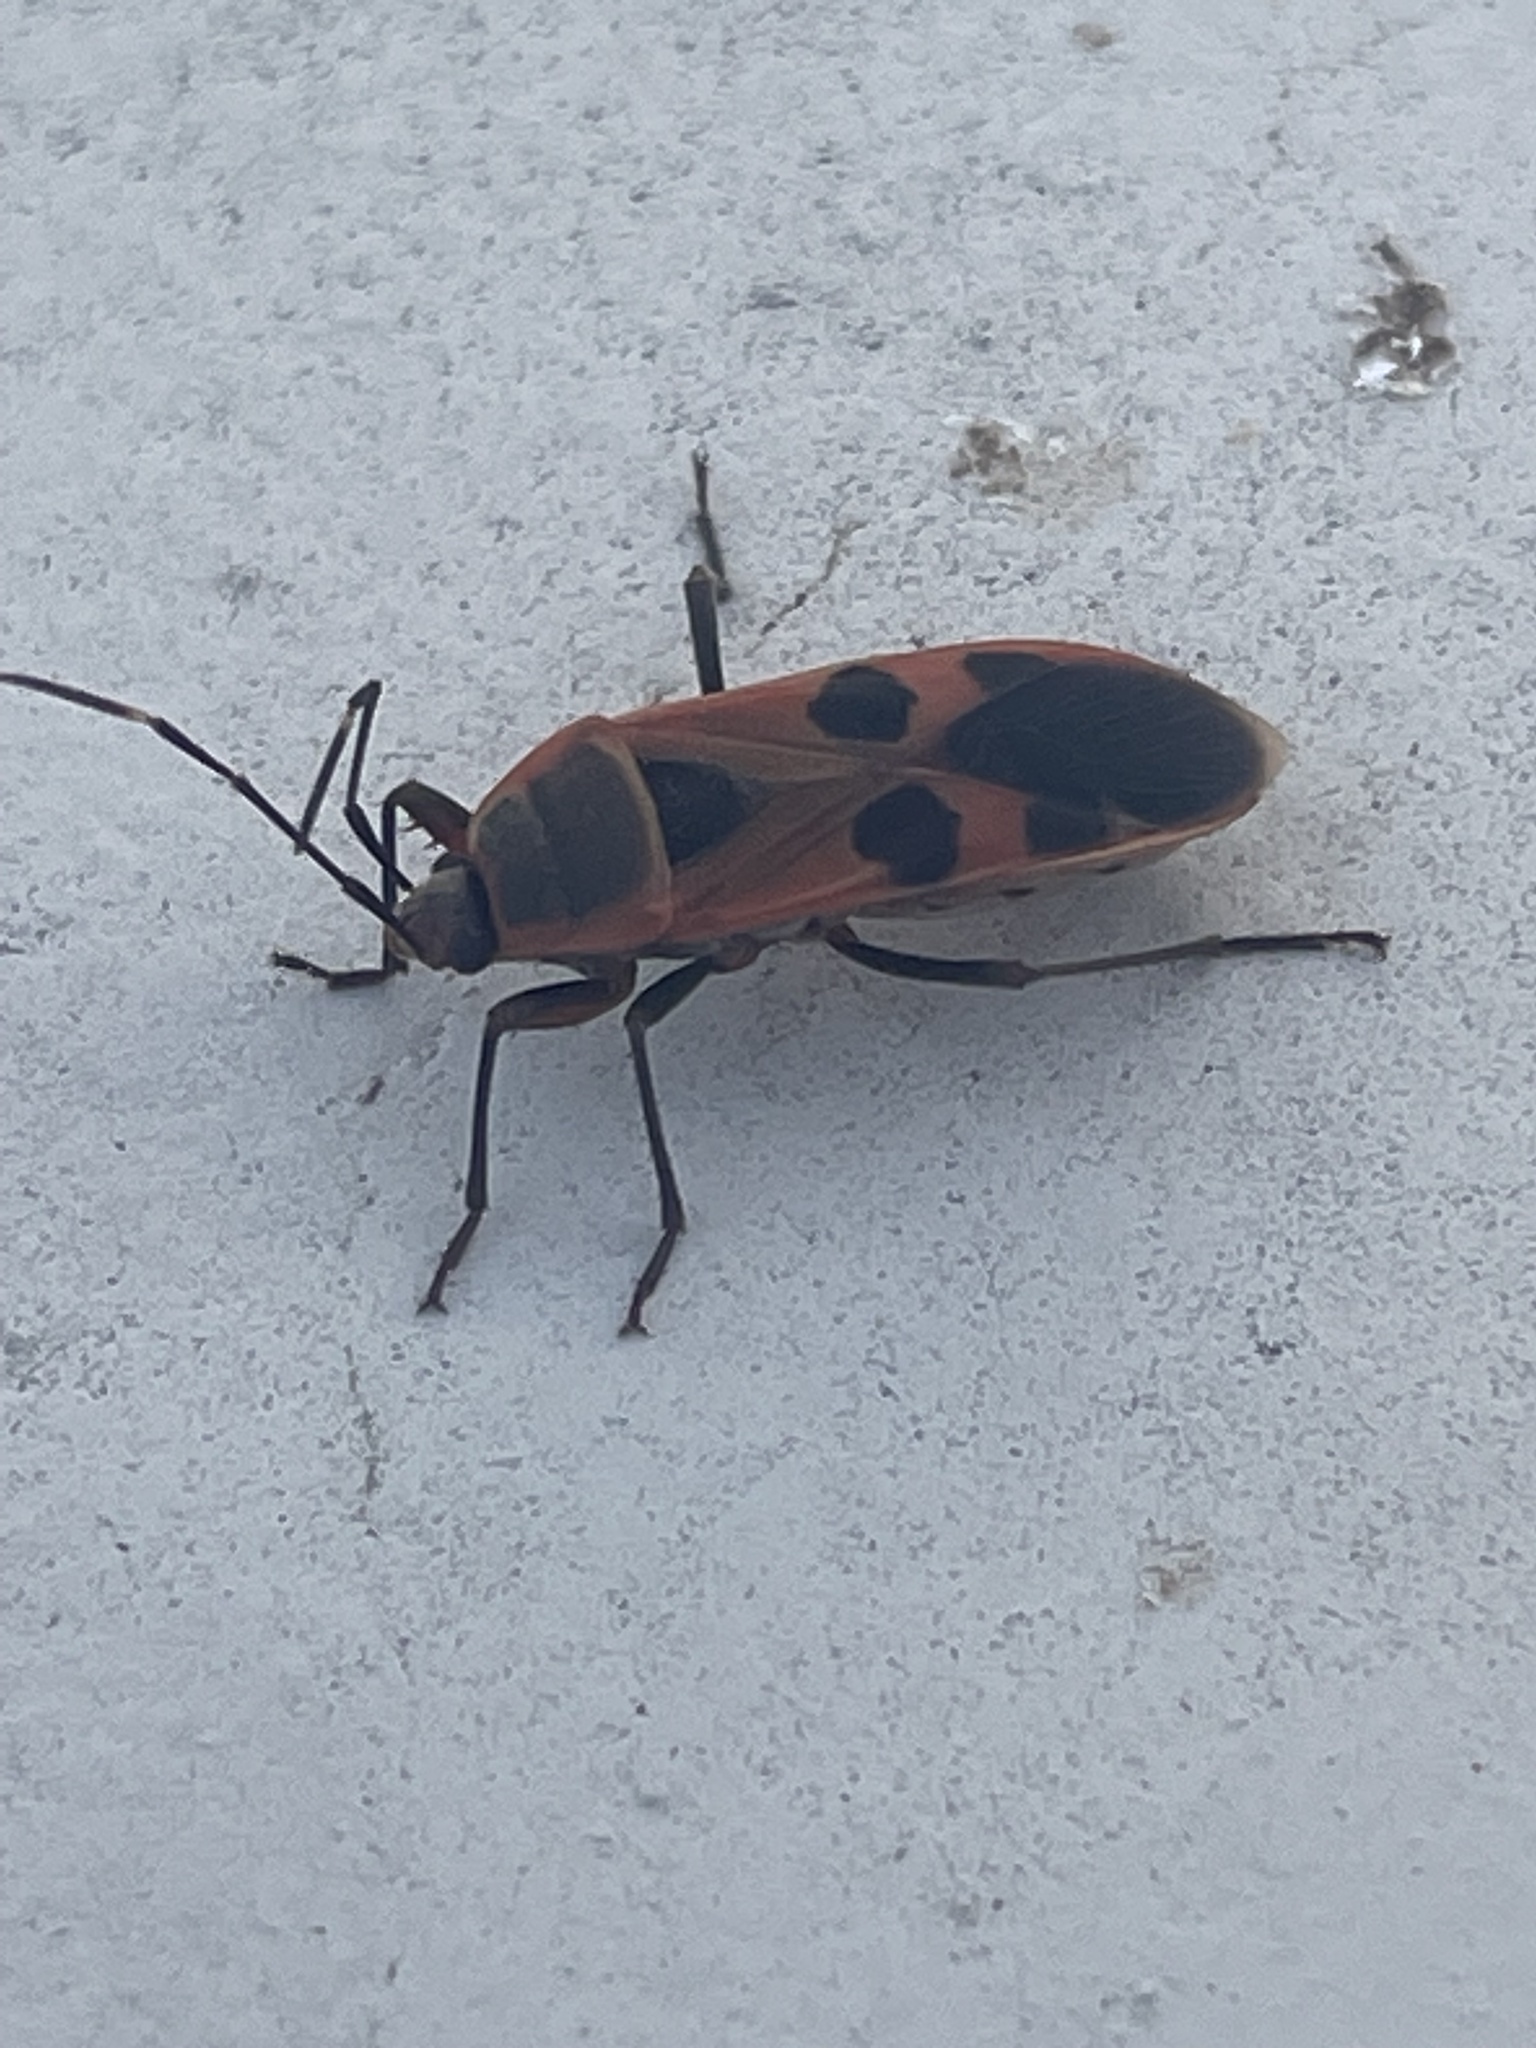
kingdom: Animalia
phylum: Arthropoda
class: Insecta
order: Hemiptera
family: Largidae
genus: Physopelta
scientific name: Physopelta gutta
